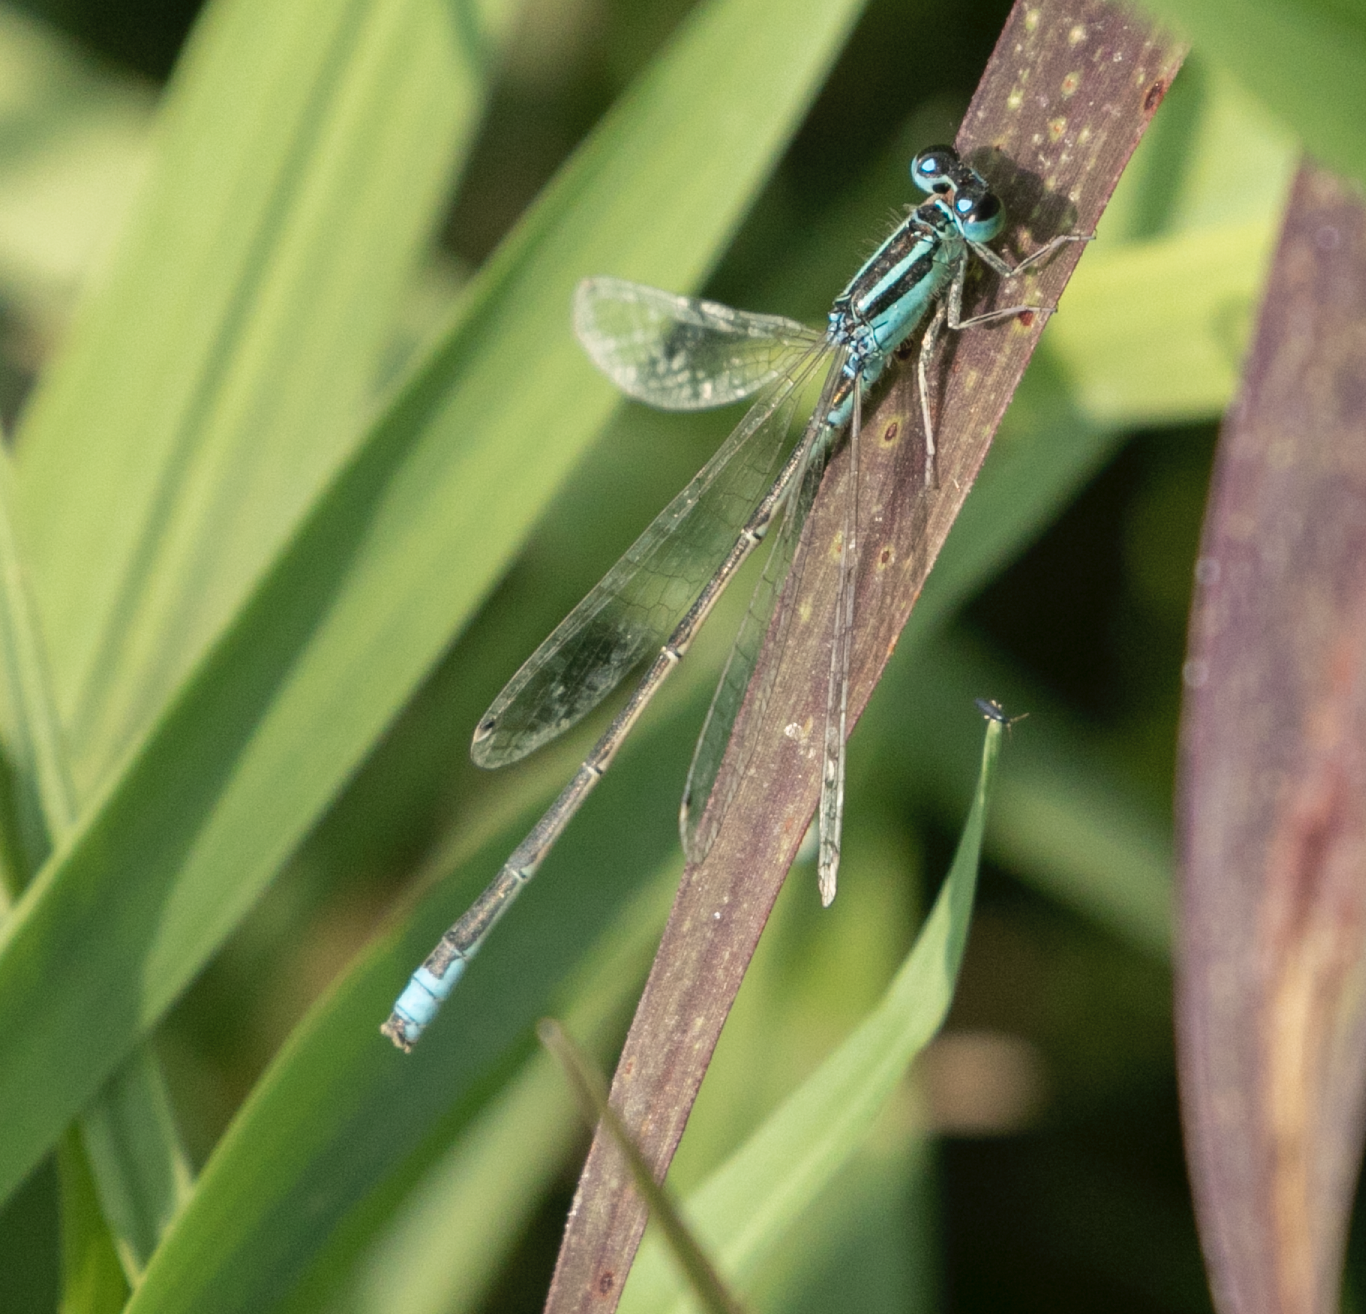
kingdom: Animalia
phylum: Arthropoda
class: Insecta
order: Odonata
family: Coenagrionidae
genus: Ischnura
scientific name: Ischnura pumilio
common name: Scarce blue-tailed damselfly
